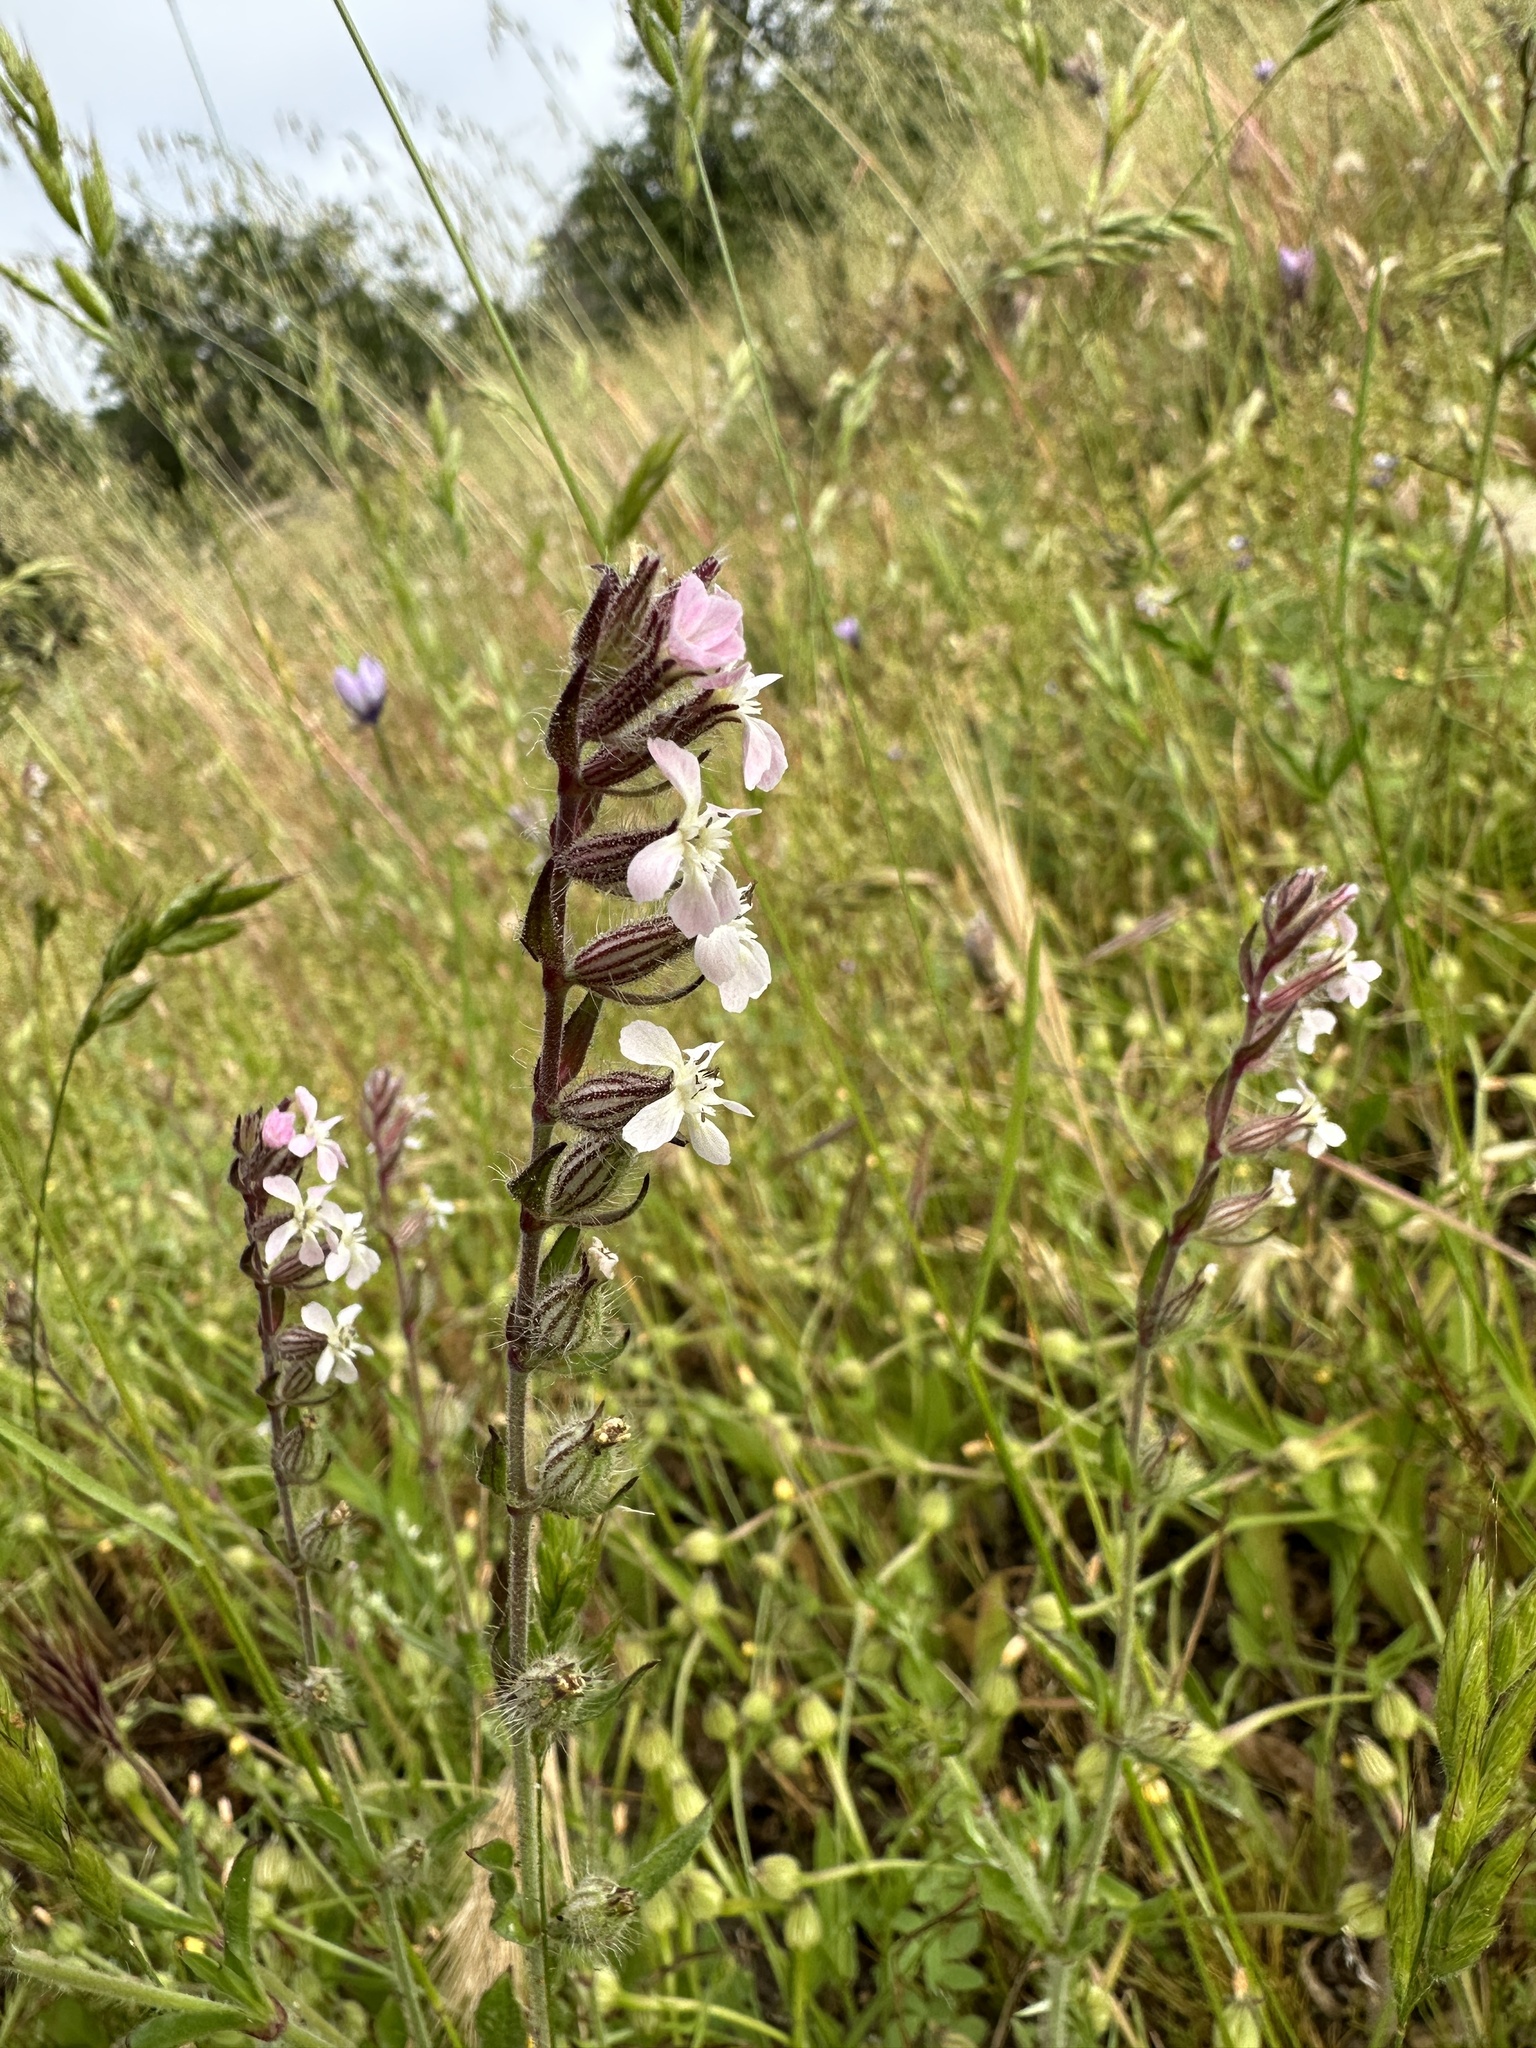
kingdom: Plantae
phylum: Tracheophyta
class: Magnoliopsida
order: Caryophyllales
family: Caryophyllaceae
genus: Silene
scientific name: Silene gallica
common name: Small-flowered catchfly
